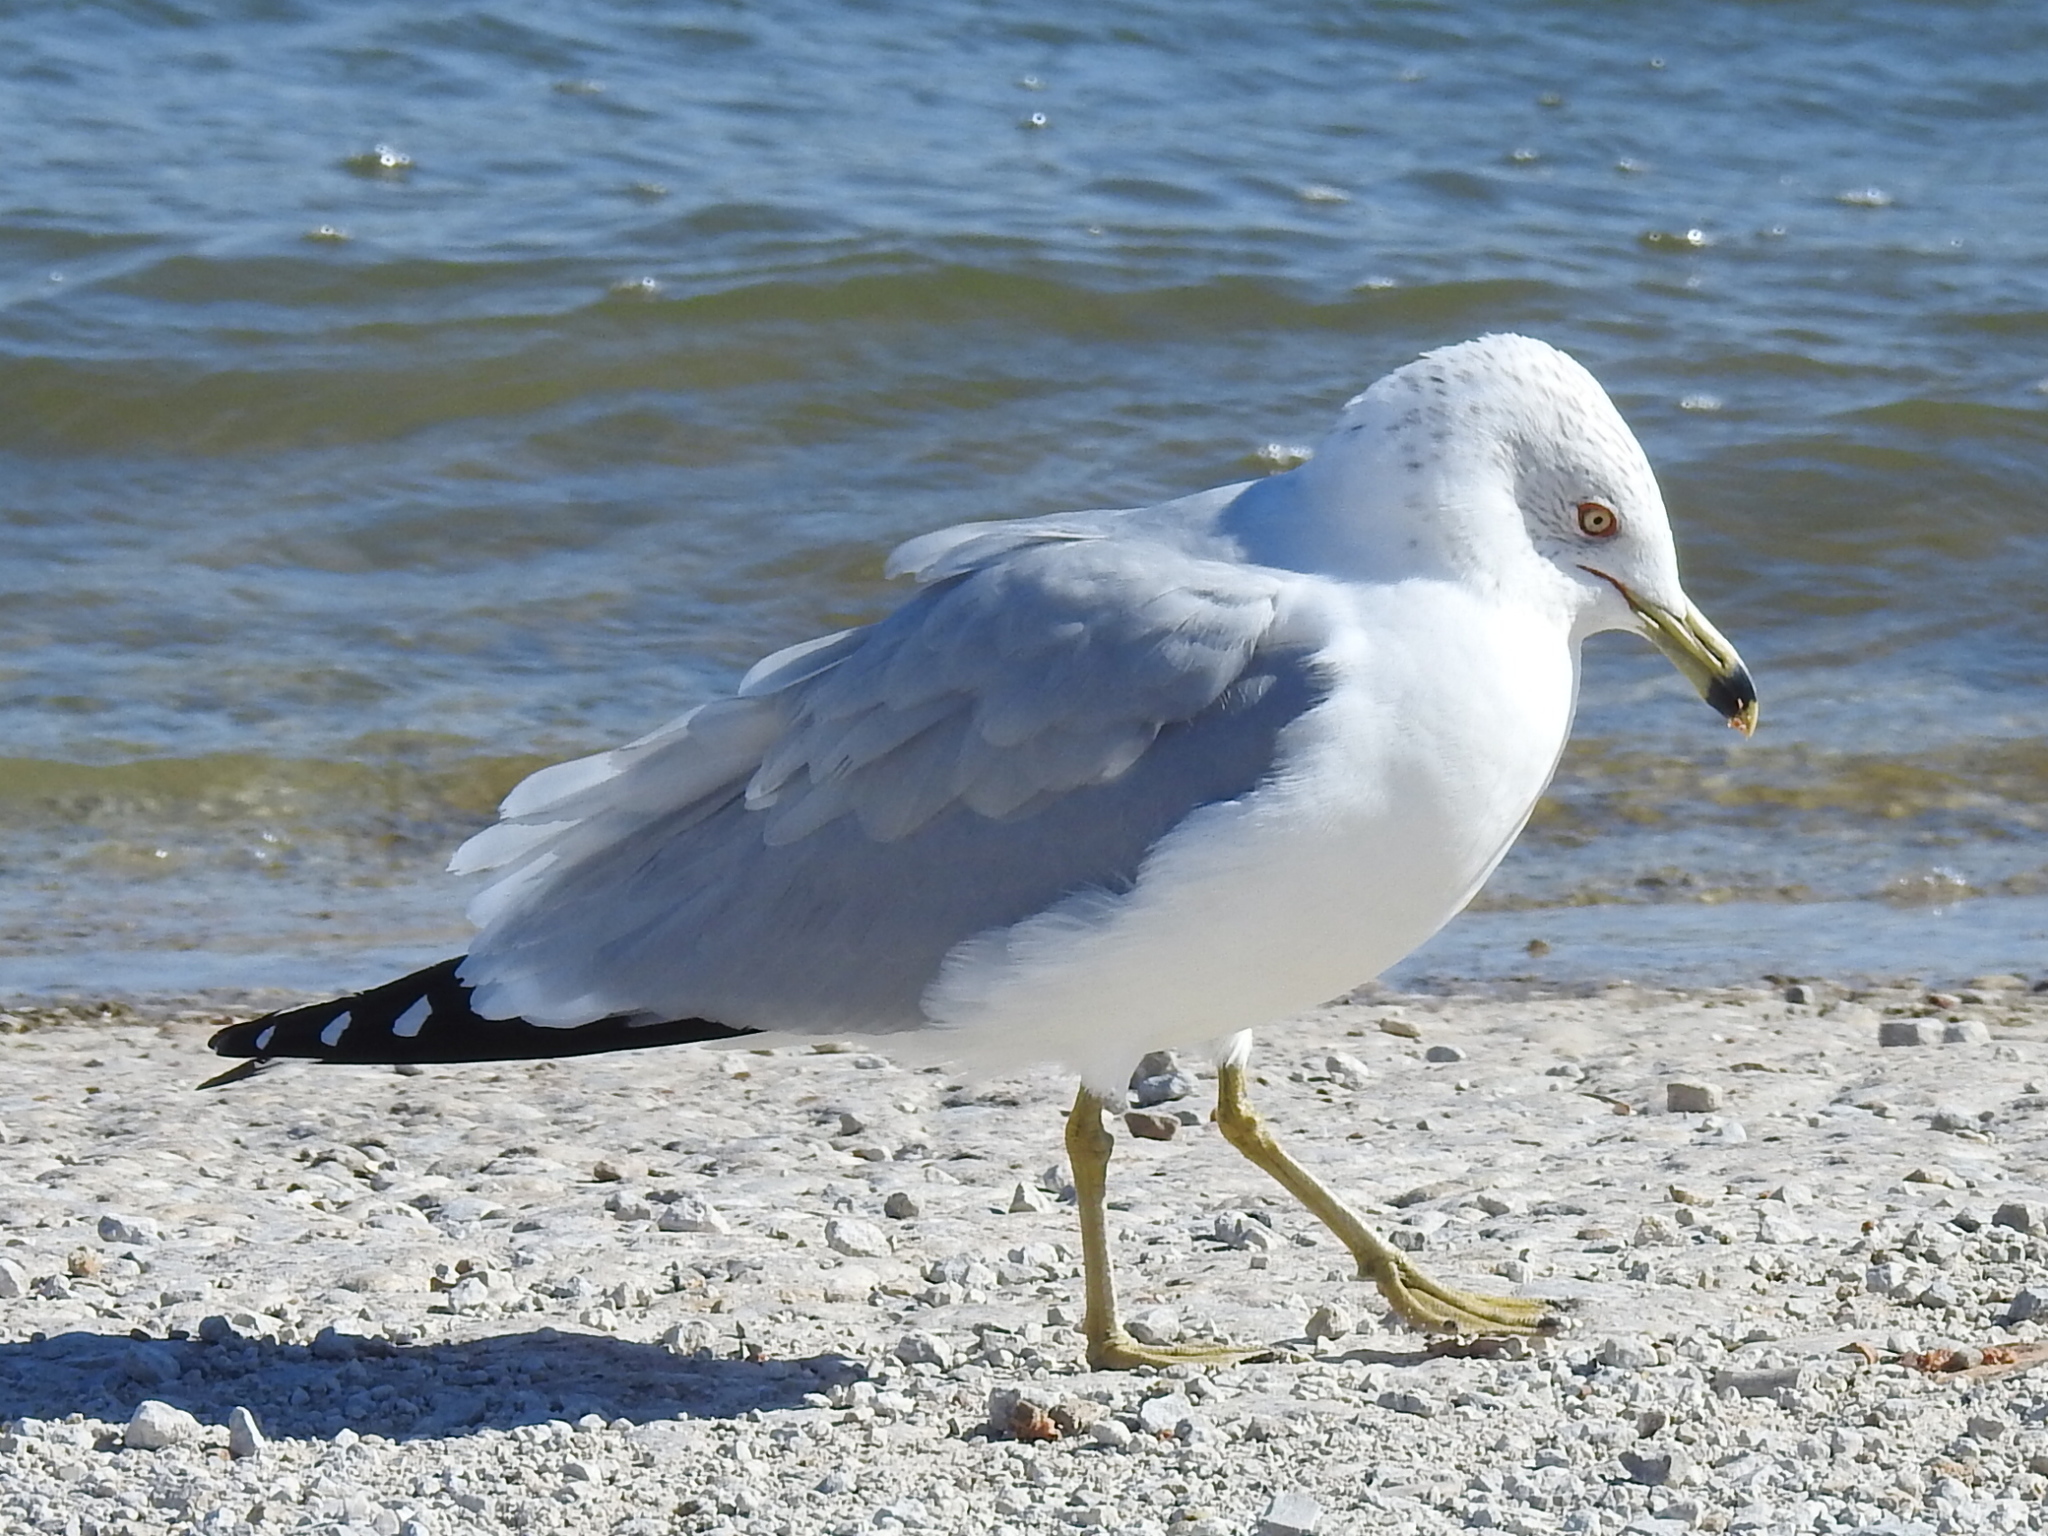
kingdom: Animalia
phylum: Chordata
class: Aves
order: Charadriiformes
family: Laridae
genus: Larus
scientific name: Larus delawarensis
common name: Ring-billed gull
